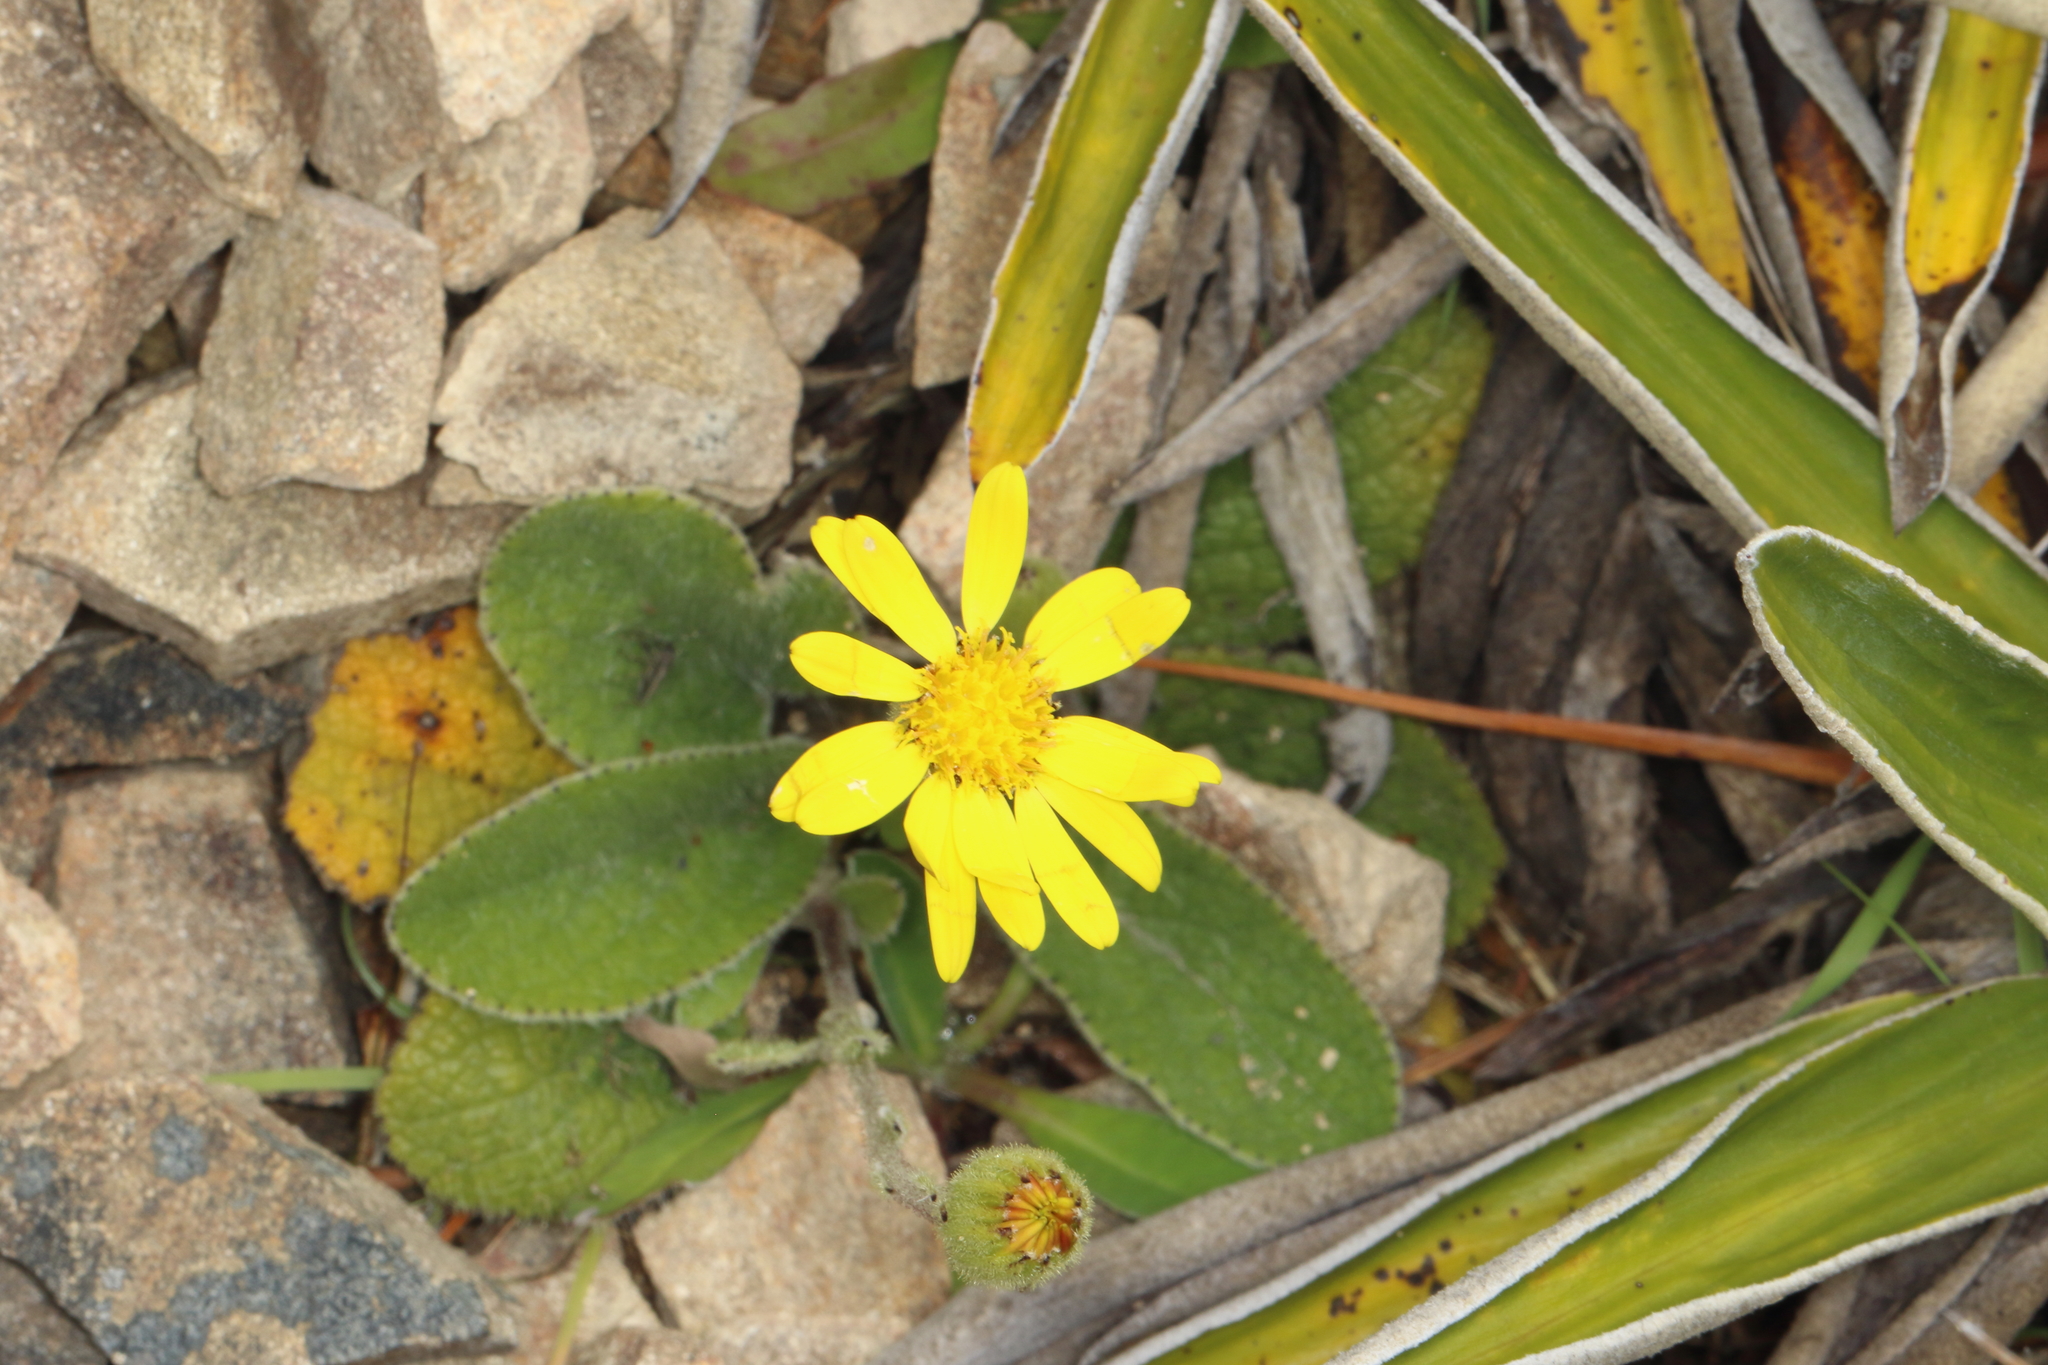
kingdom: Plantae
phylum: Tracheophyta
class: Magnoliopsida
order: Asterales
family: Asteraceae
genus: Brachyglottis
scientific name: Brachyglottis lagopus
